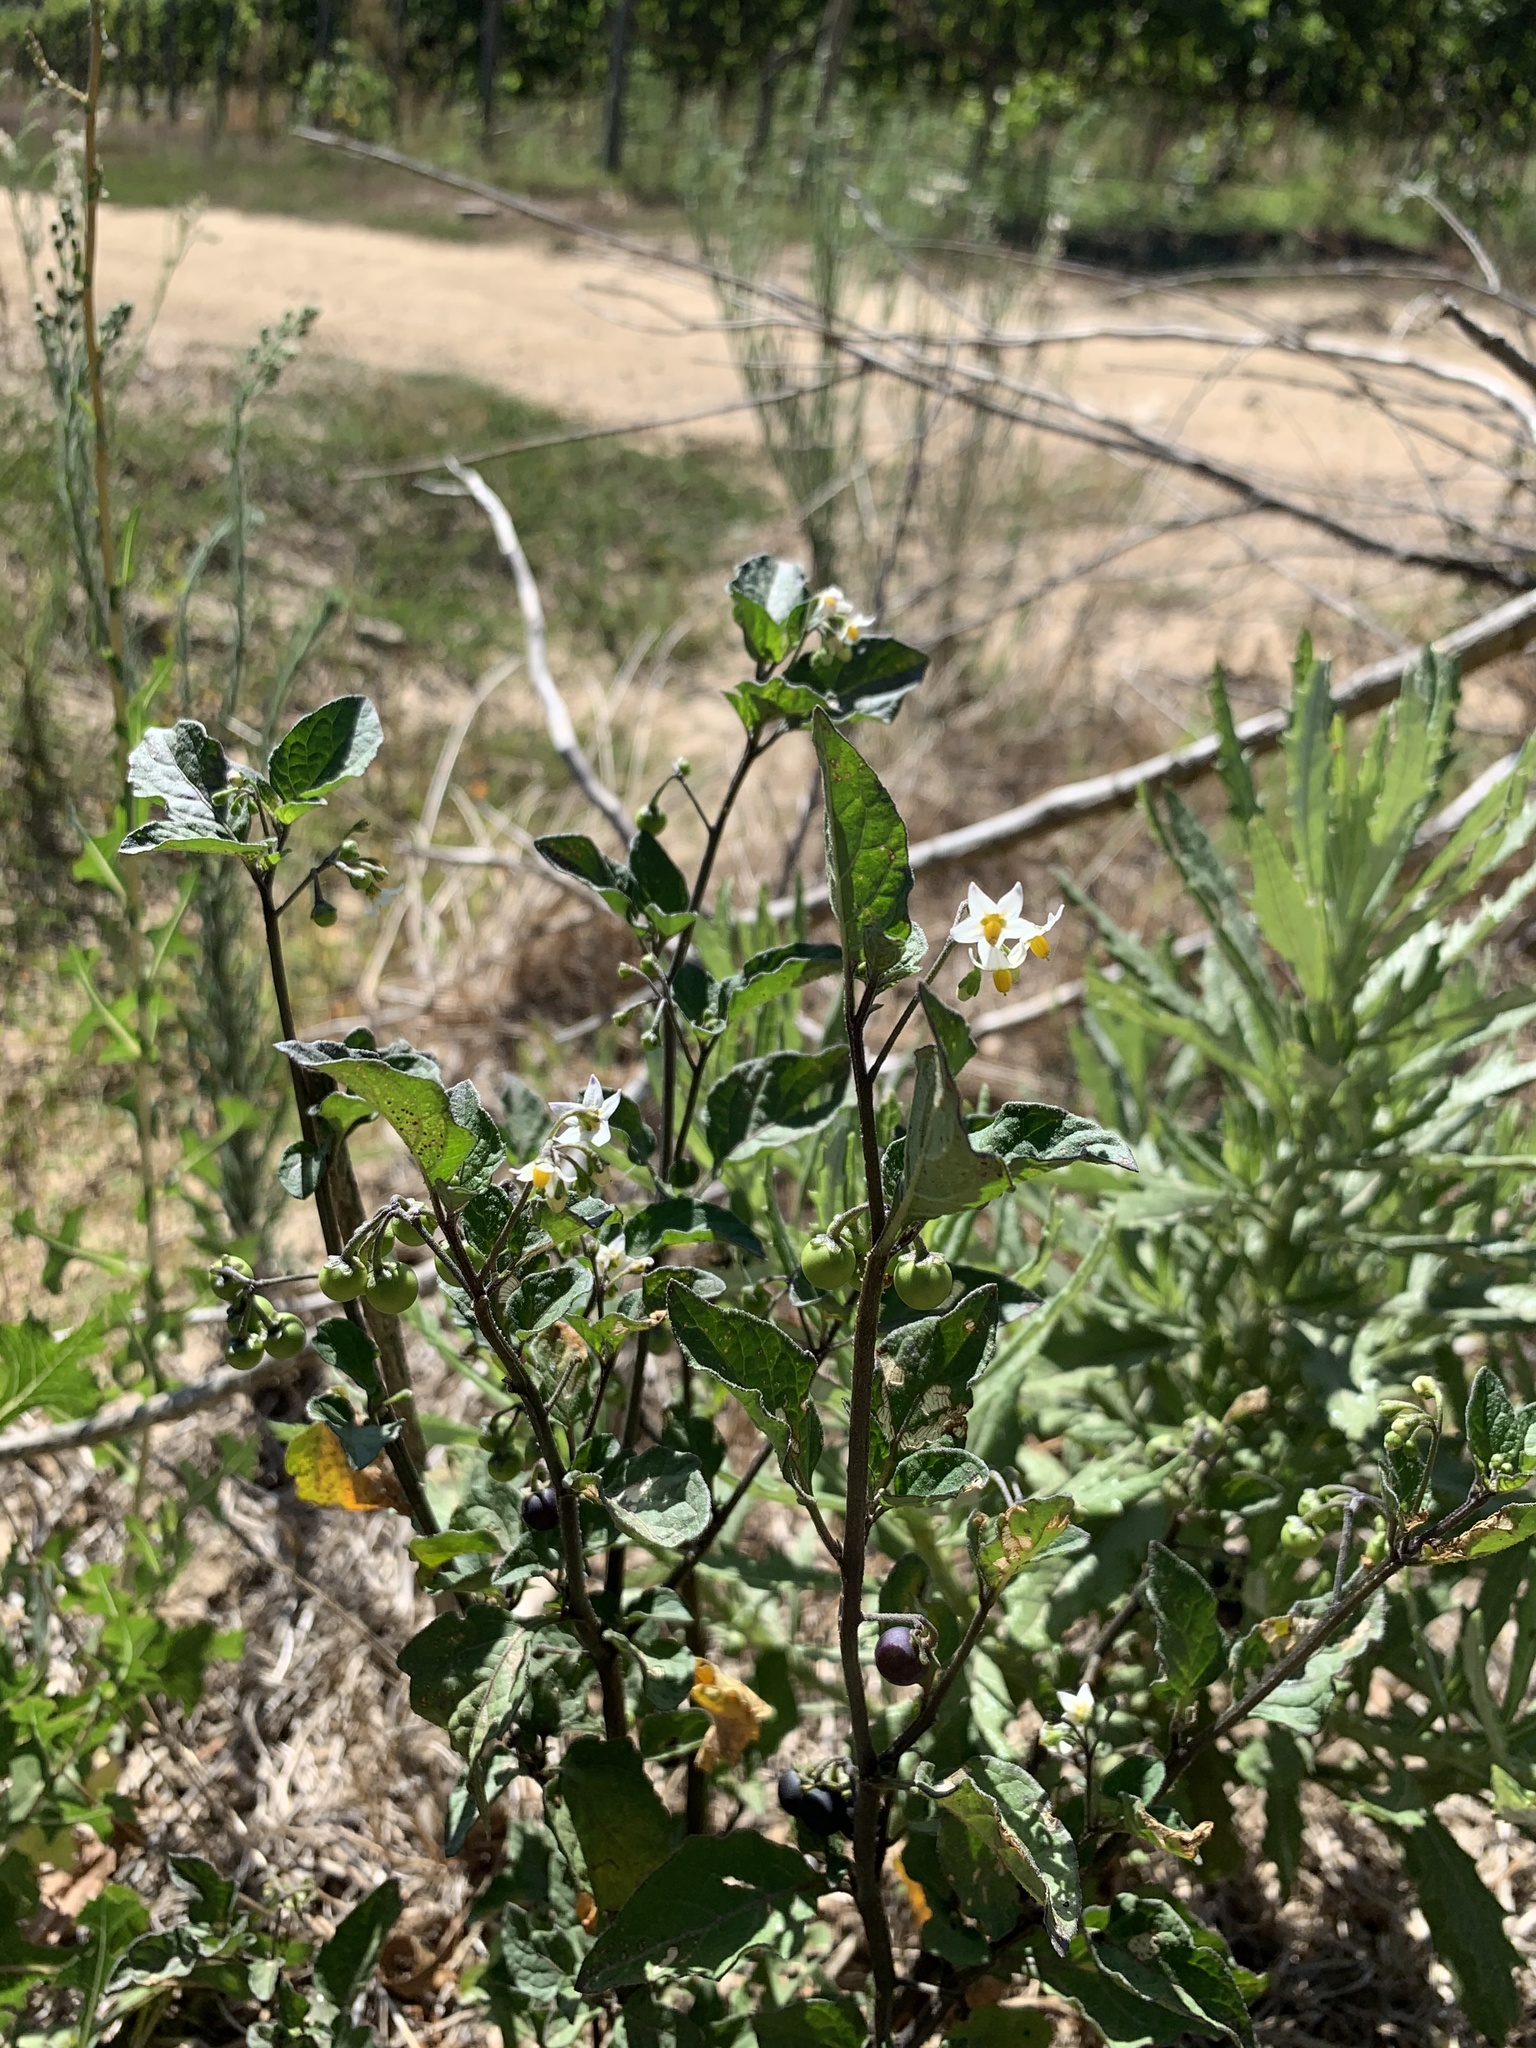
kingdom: Plantae
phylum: Tracheophyta
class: Magnoliopsida
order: Solanales
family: Solanaceae
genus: Solanum
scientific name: Solanum nigrum
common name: Black nightshade
